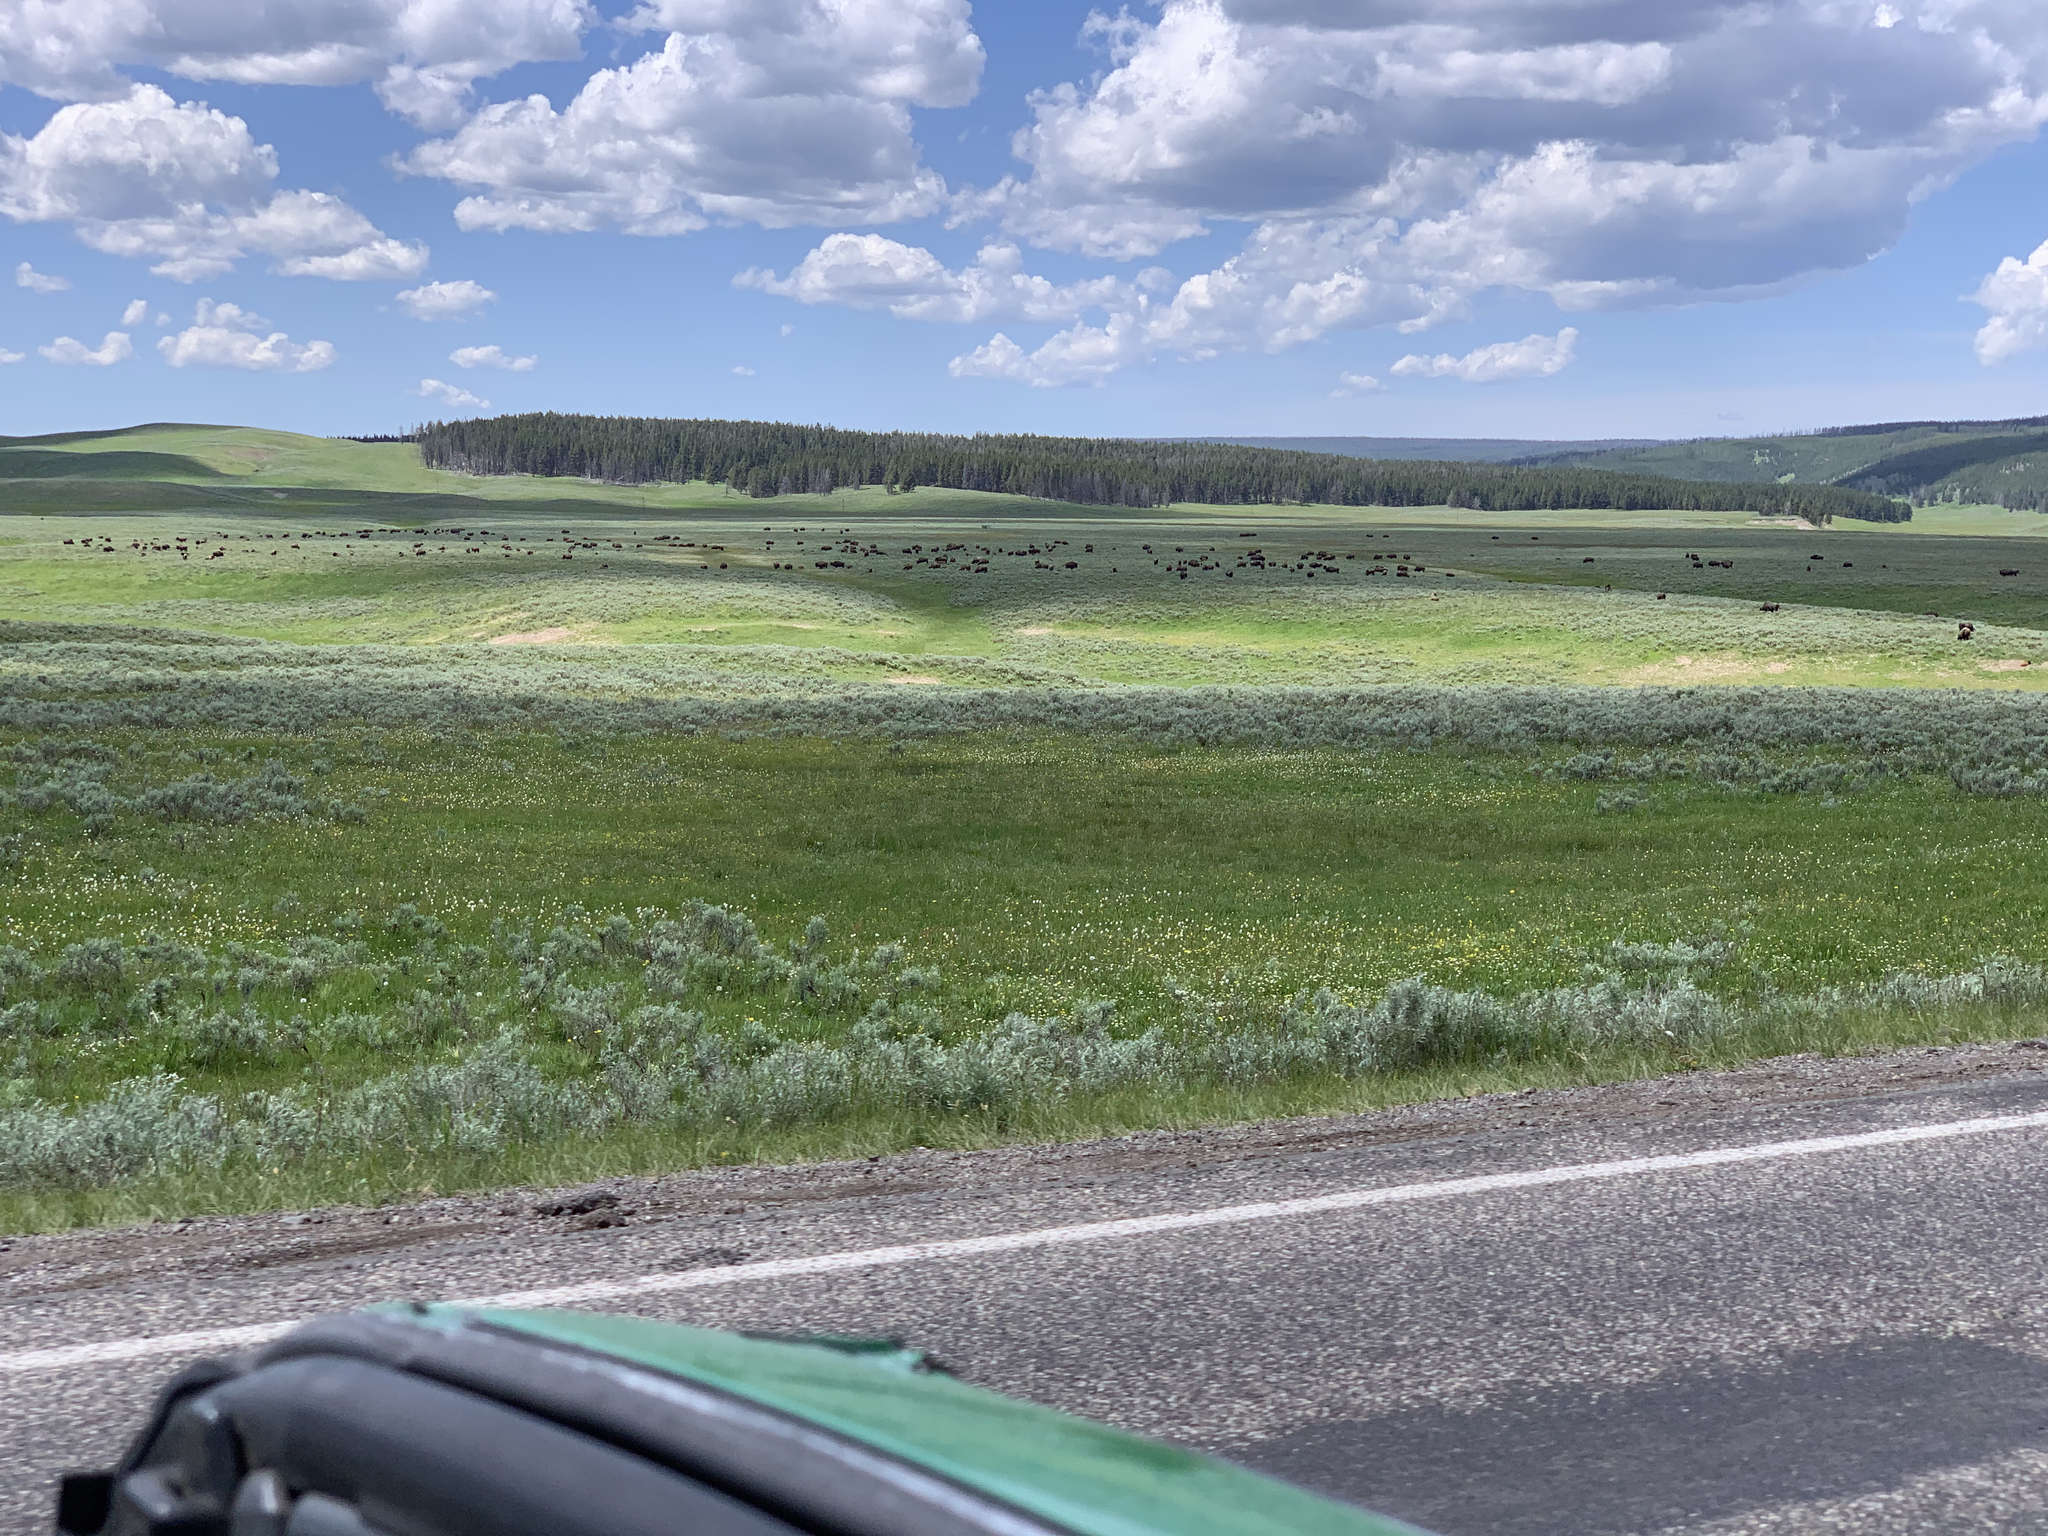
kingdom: Animalia
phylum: Chordata
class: Mammalia
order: Artiodactyla
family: Bovidae
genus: Bison
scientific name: Bison bison
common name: American bison
